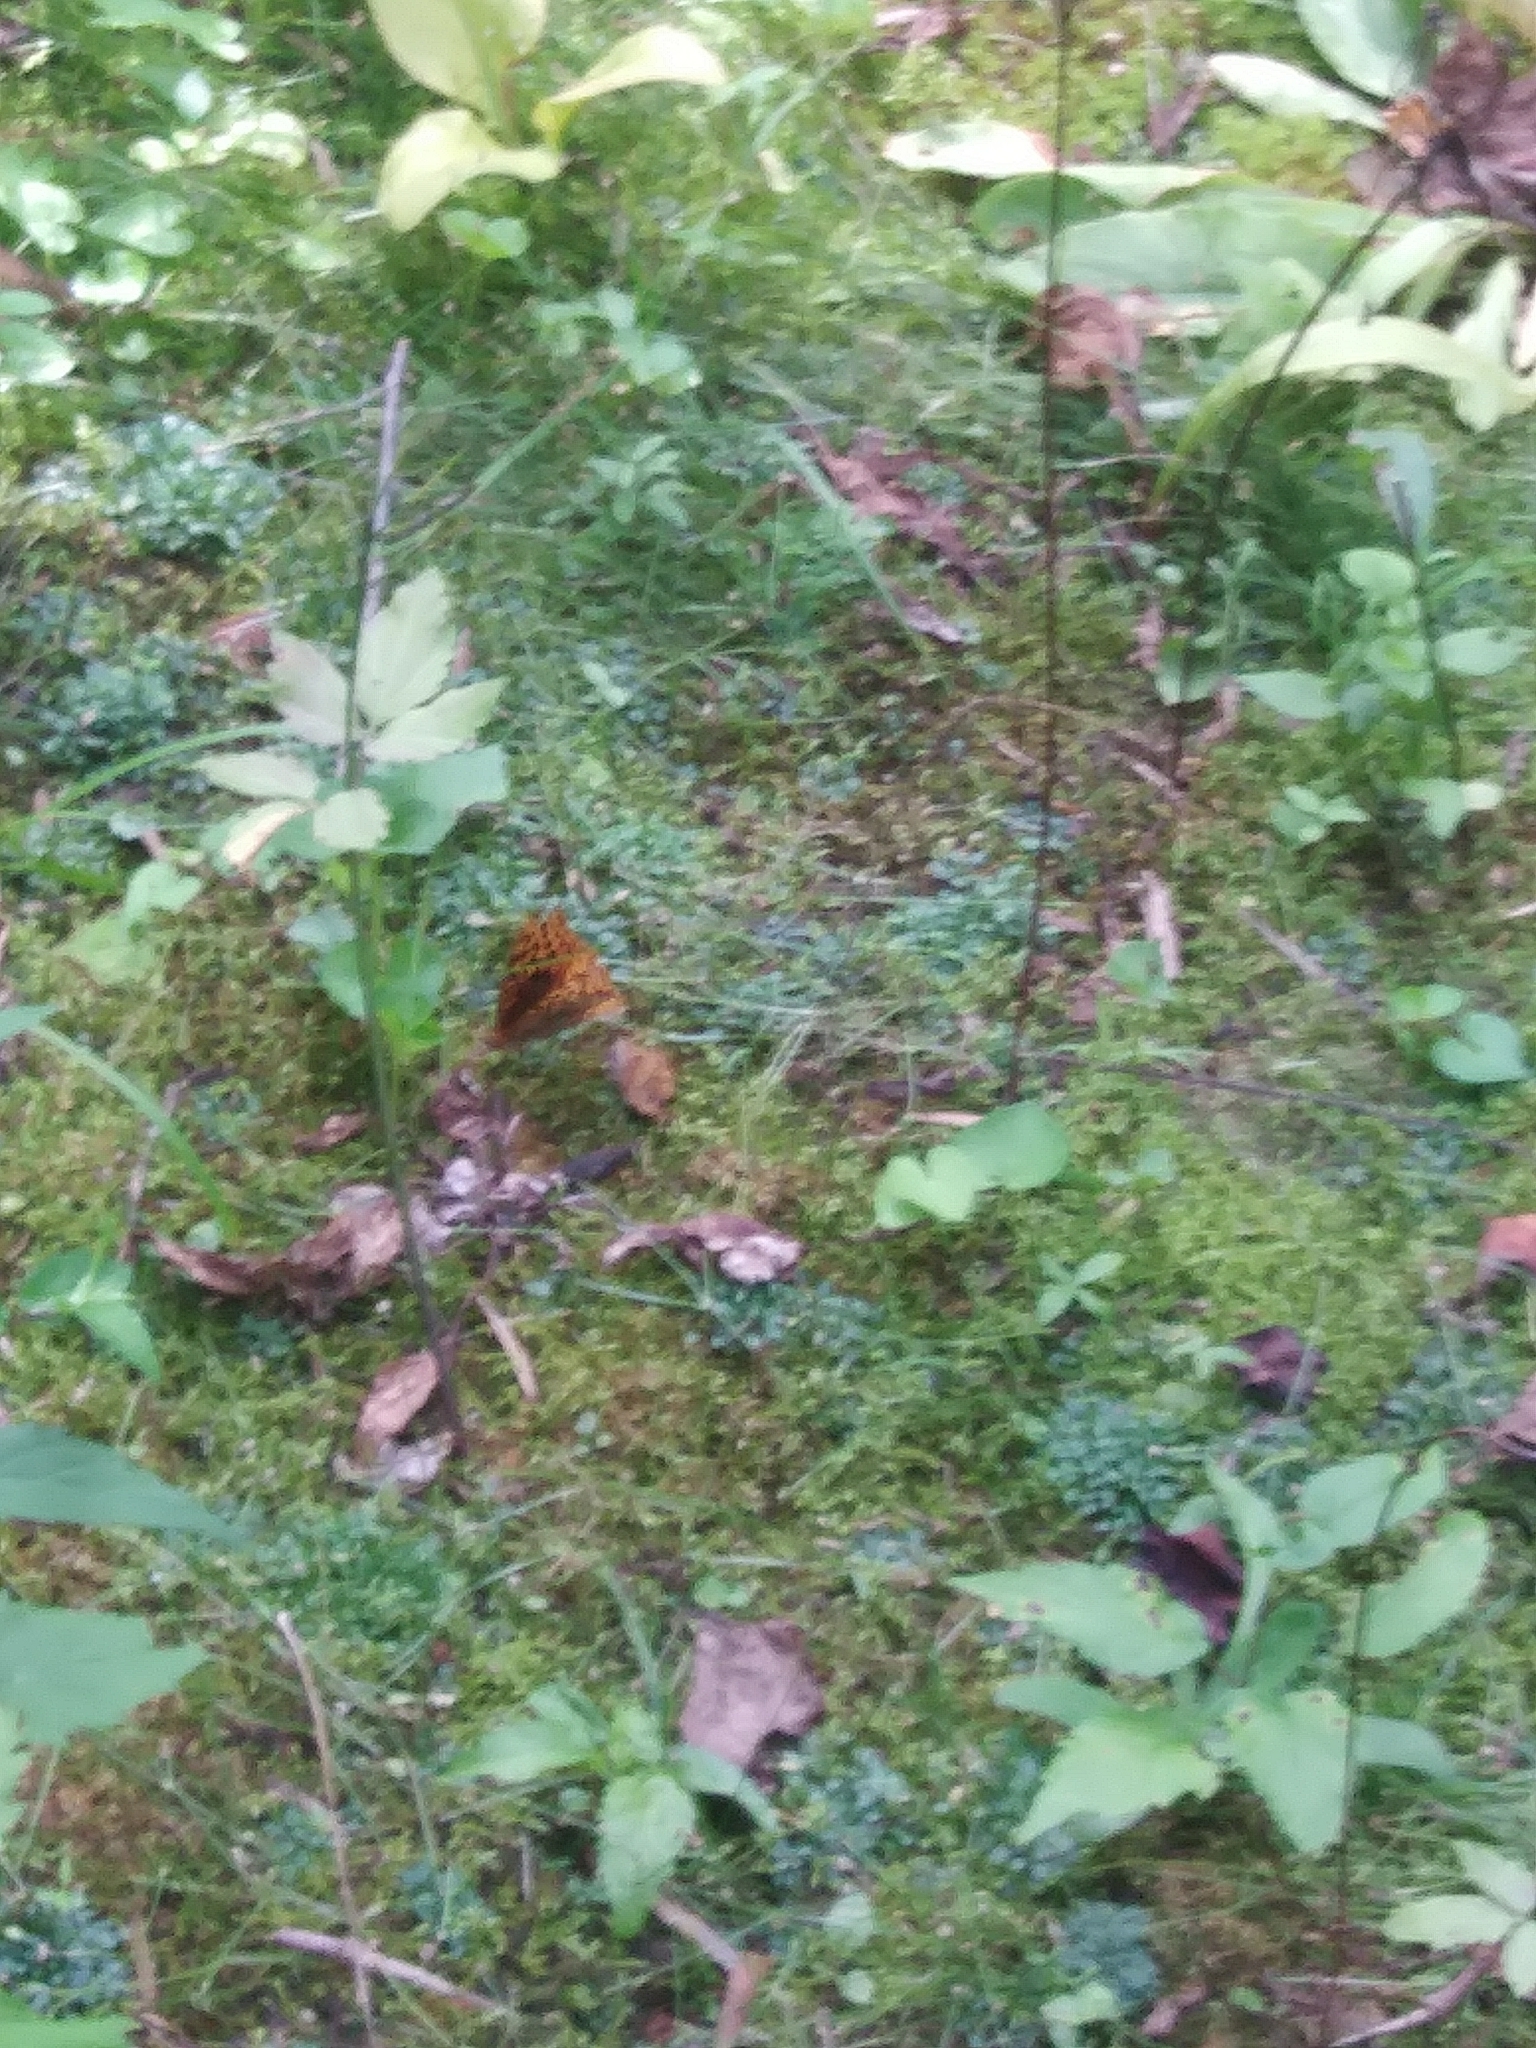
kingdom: Animalia
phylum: Arthropoda
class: Insecta
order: Lepidoptera
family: Nymphalidae
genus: Speyeria
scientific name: Speyeria cybele
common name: Great spangled fritillary
